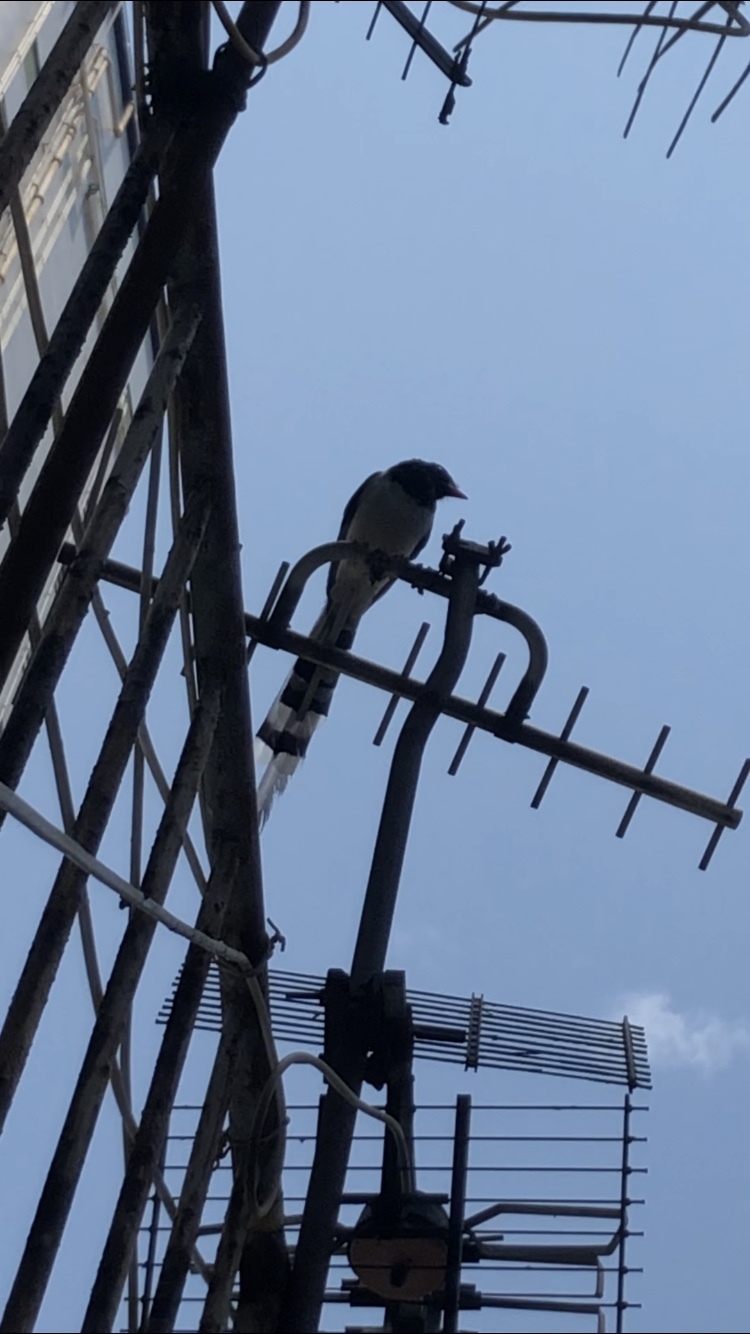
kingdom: Animalia
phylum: Chordata
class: Aves
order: Passeriformes
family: Corvidae
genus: Urocissa
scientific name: Urocissa erythroryncha
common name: Red-billed blue magpie
